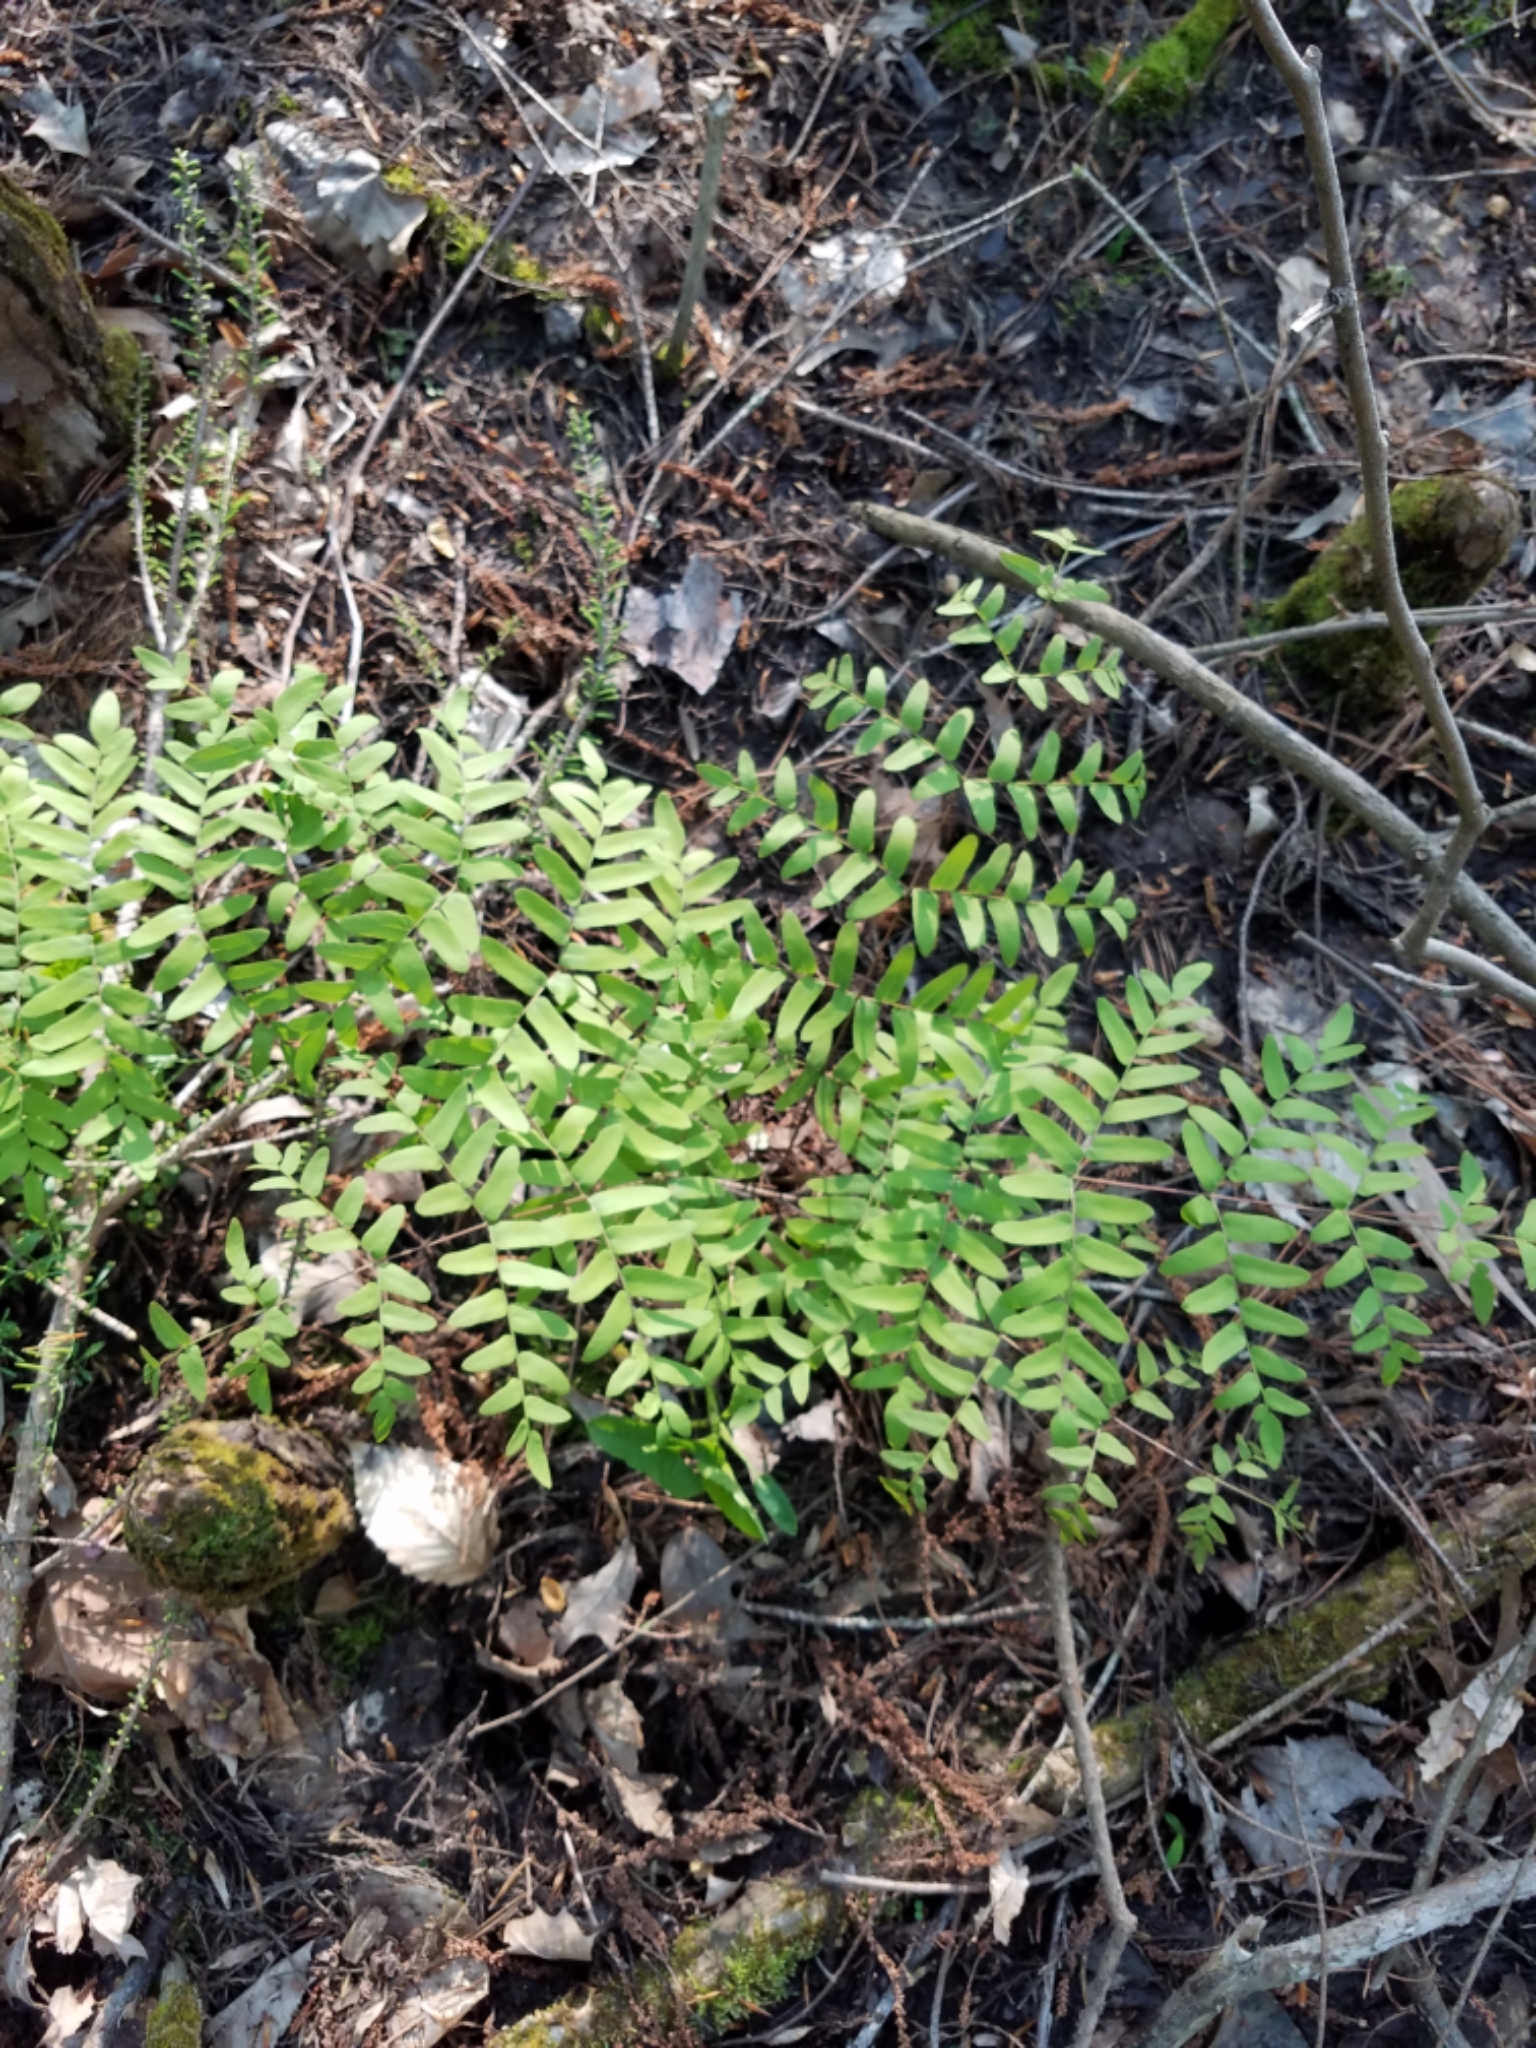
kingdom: Plantae
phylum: Tracheophyta
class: Polypodiopsida
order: Osmundales
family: Osmundaceae
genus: Osmunda
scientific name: Osmunda spectabilis
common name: American royal fern
